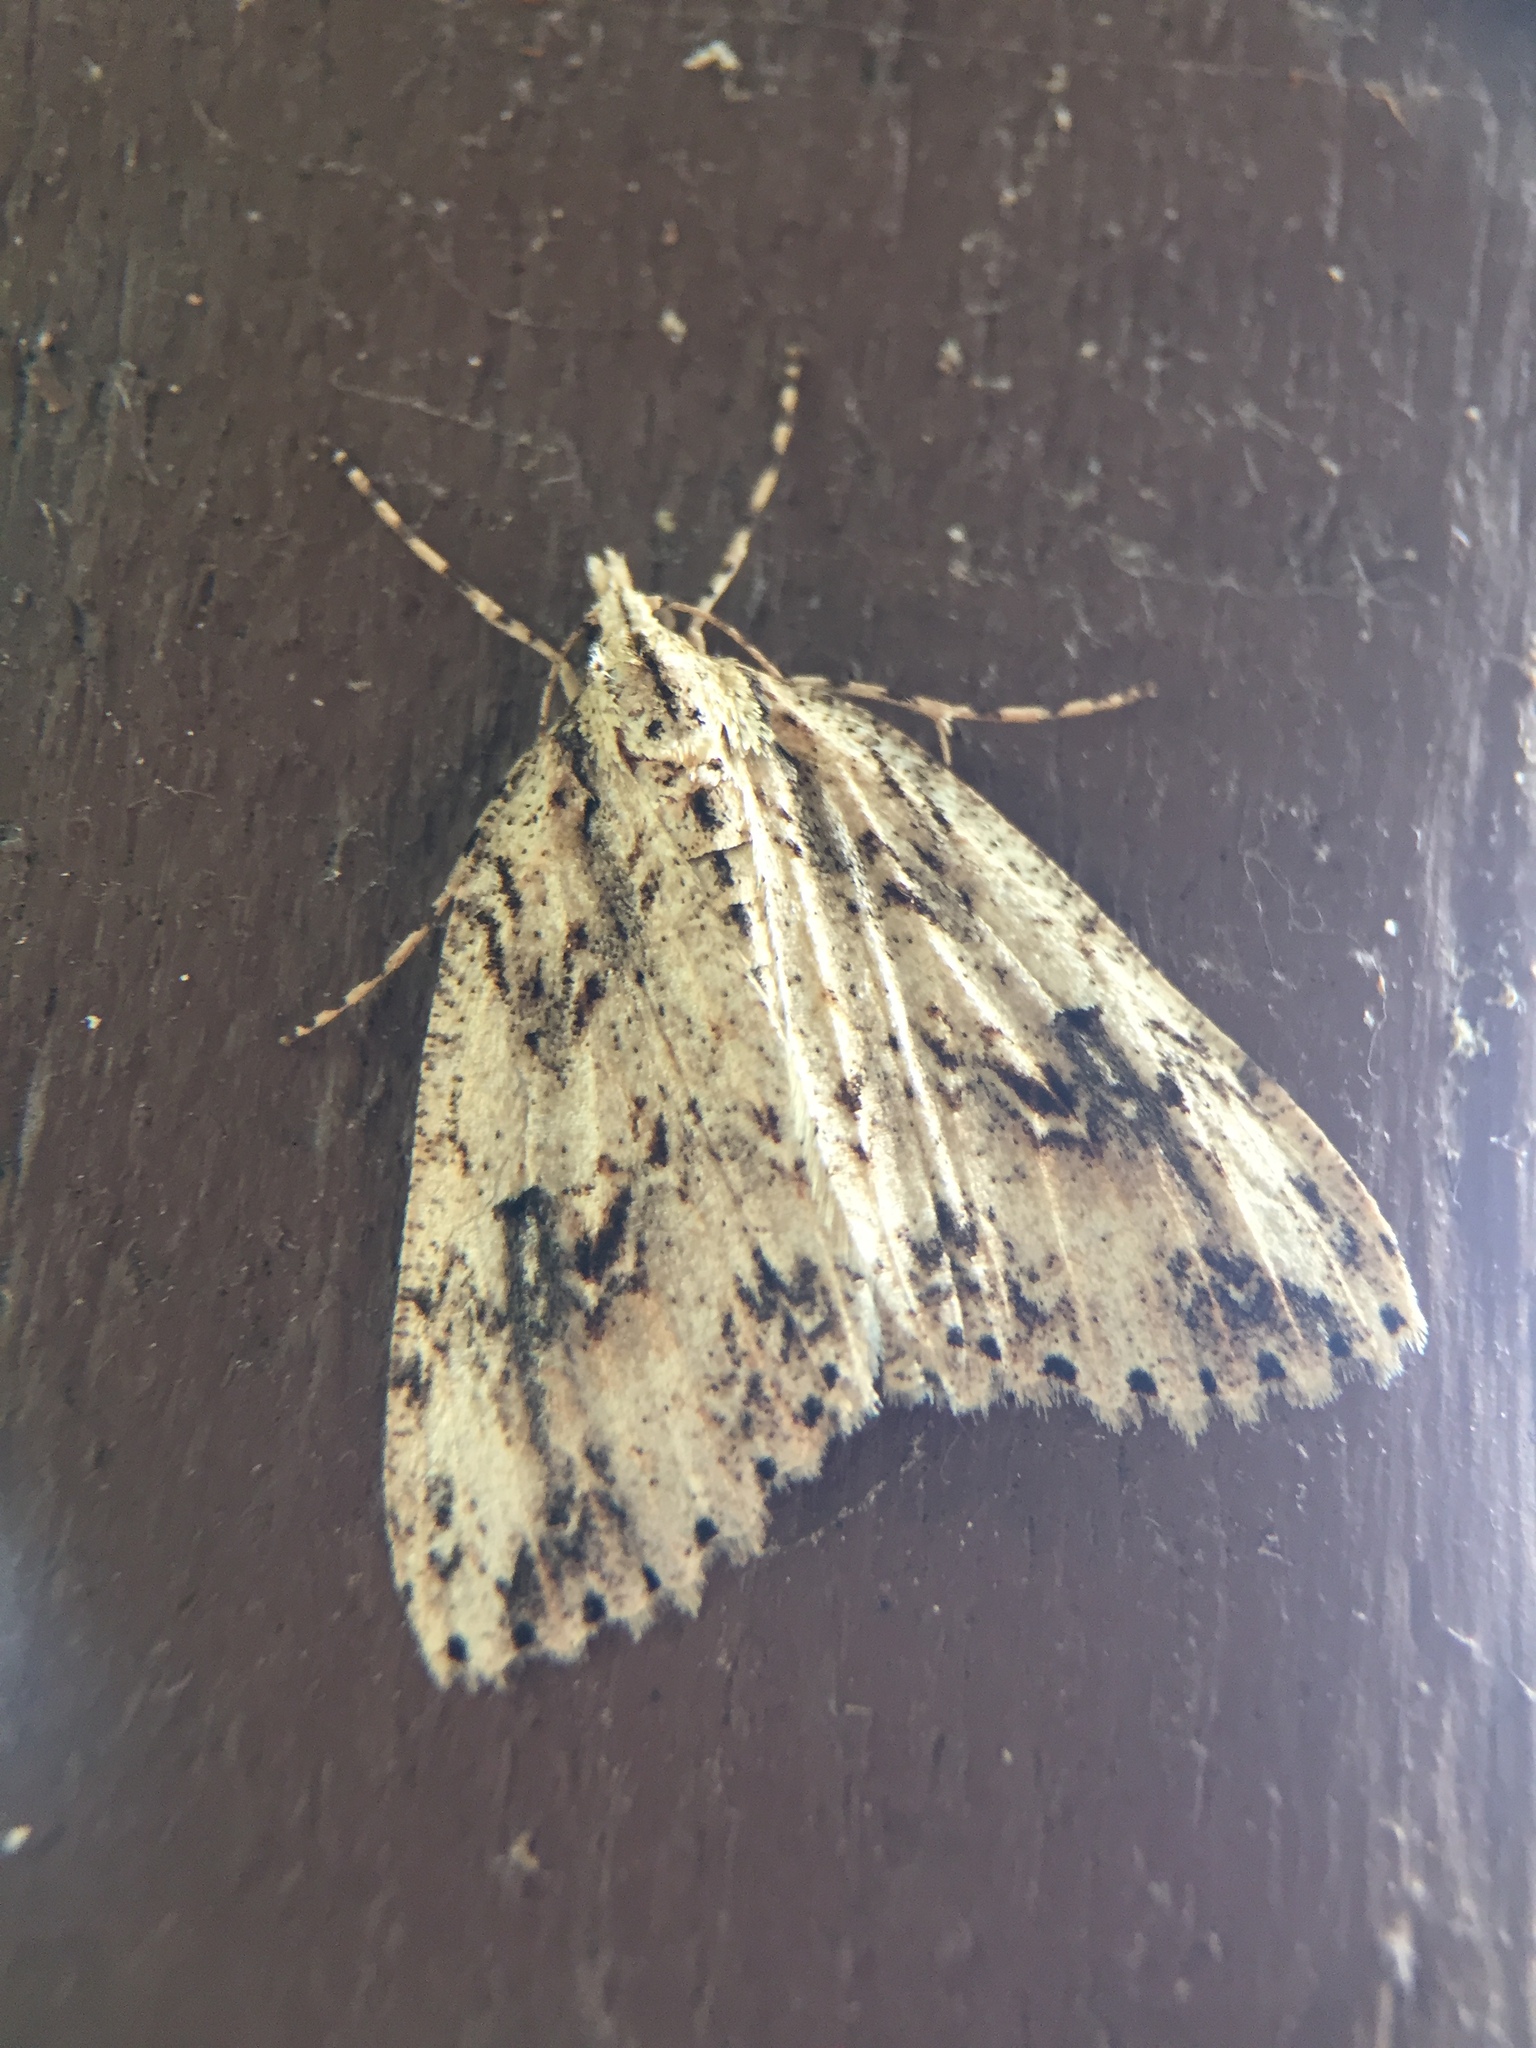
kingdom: Animalia
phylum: Arthropoda
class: Insecta
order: Lepidoptera
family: Geometridae
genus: Pseudocoremia
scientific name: Pseudocoremia rudisata
